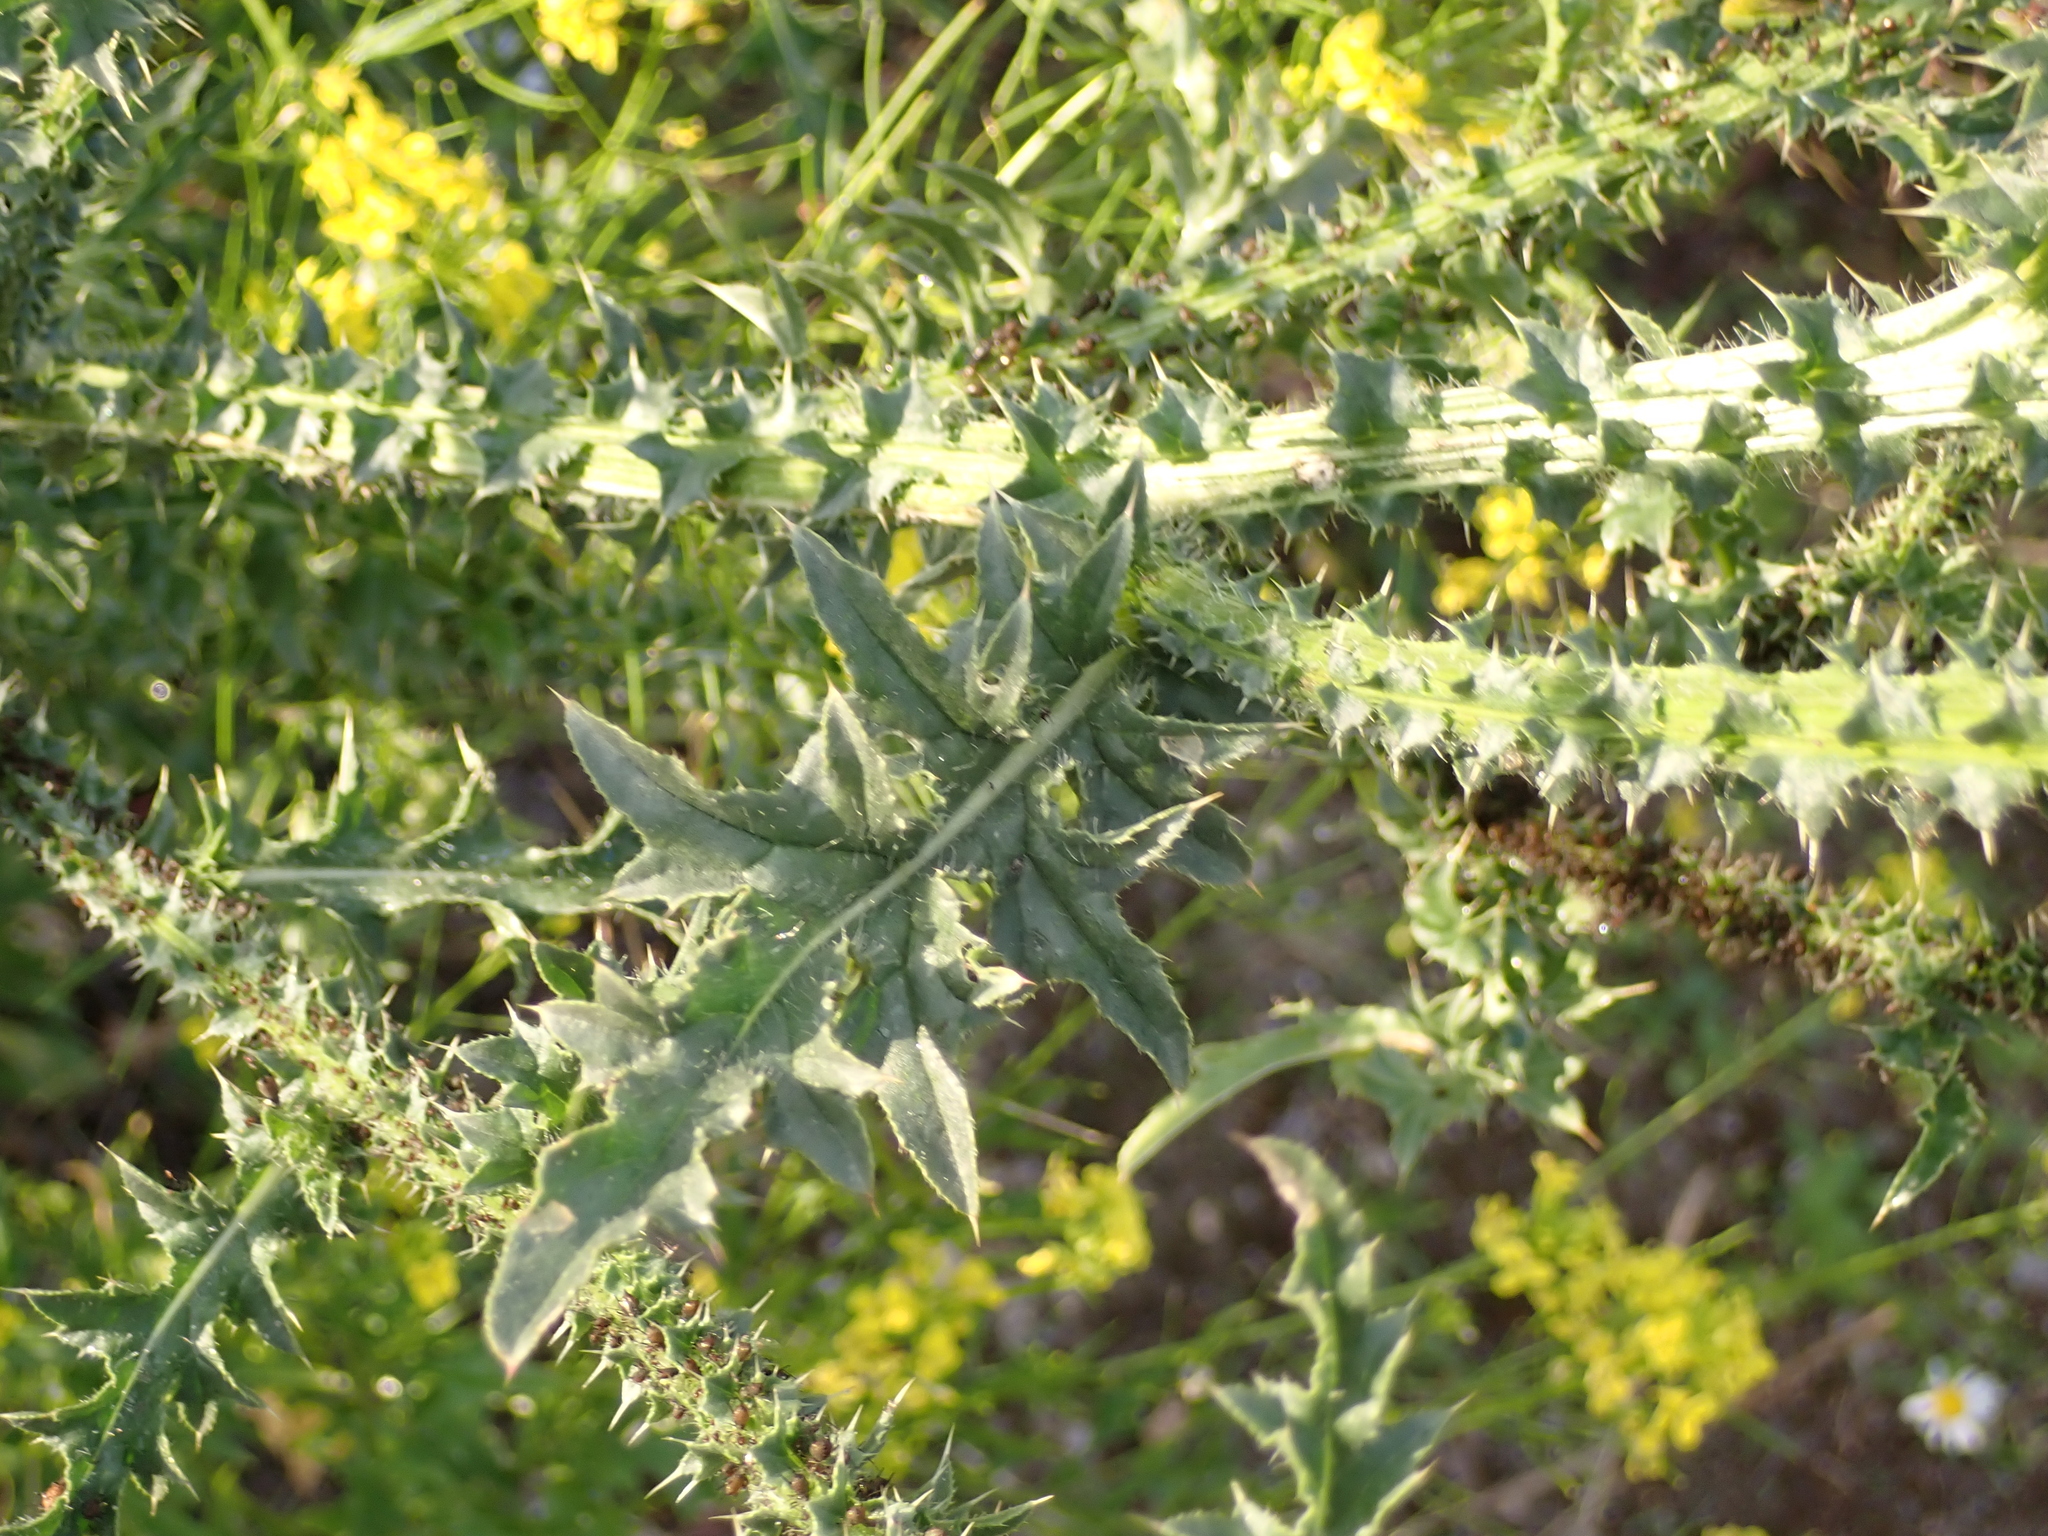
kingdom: Plantae
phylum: Tracheophyta
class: Magnoliopsida
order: Asterales
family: Asteraceae
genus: Carduus
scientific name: Carduus acanthoides
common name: Plumeless thistle
